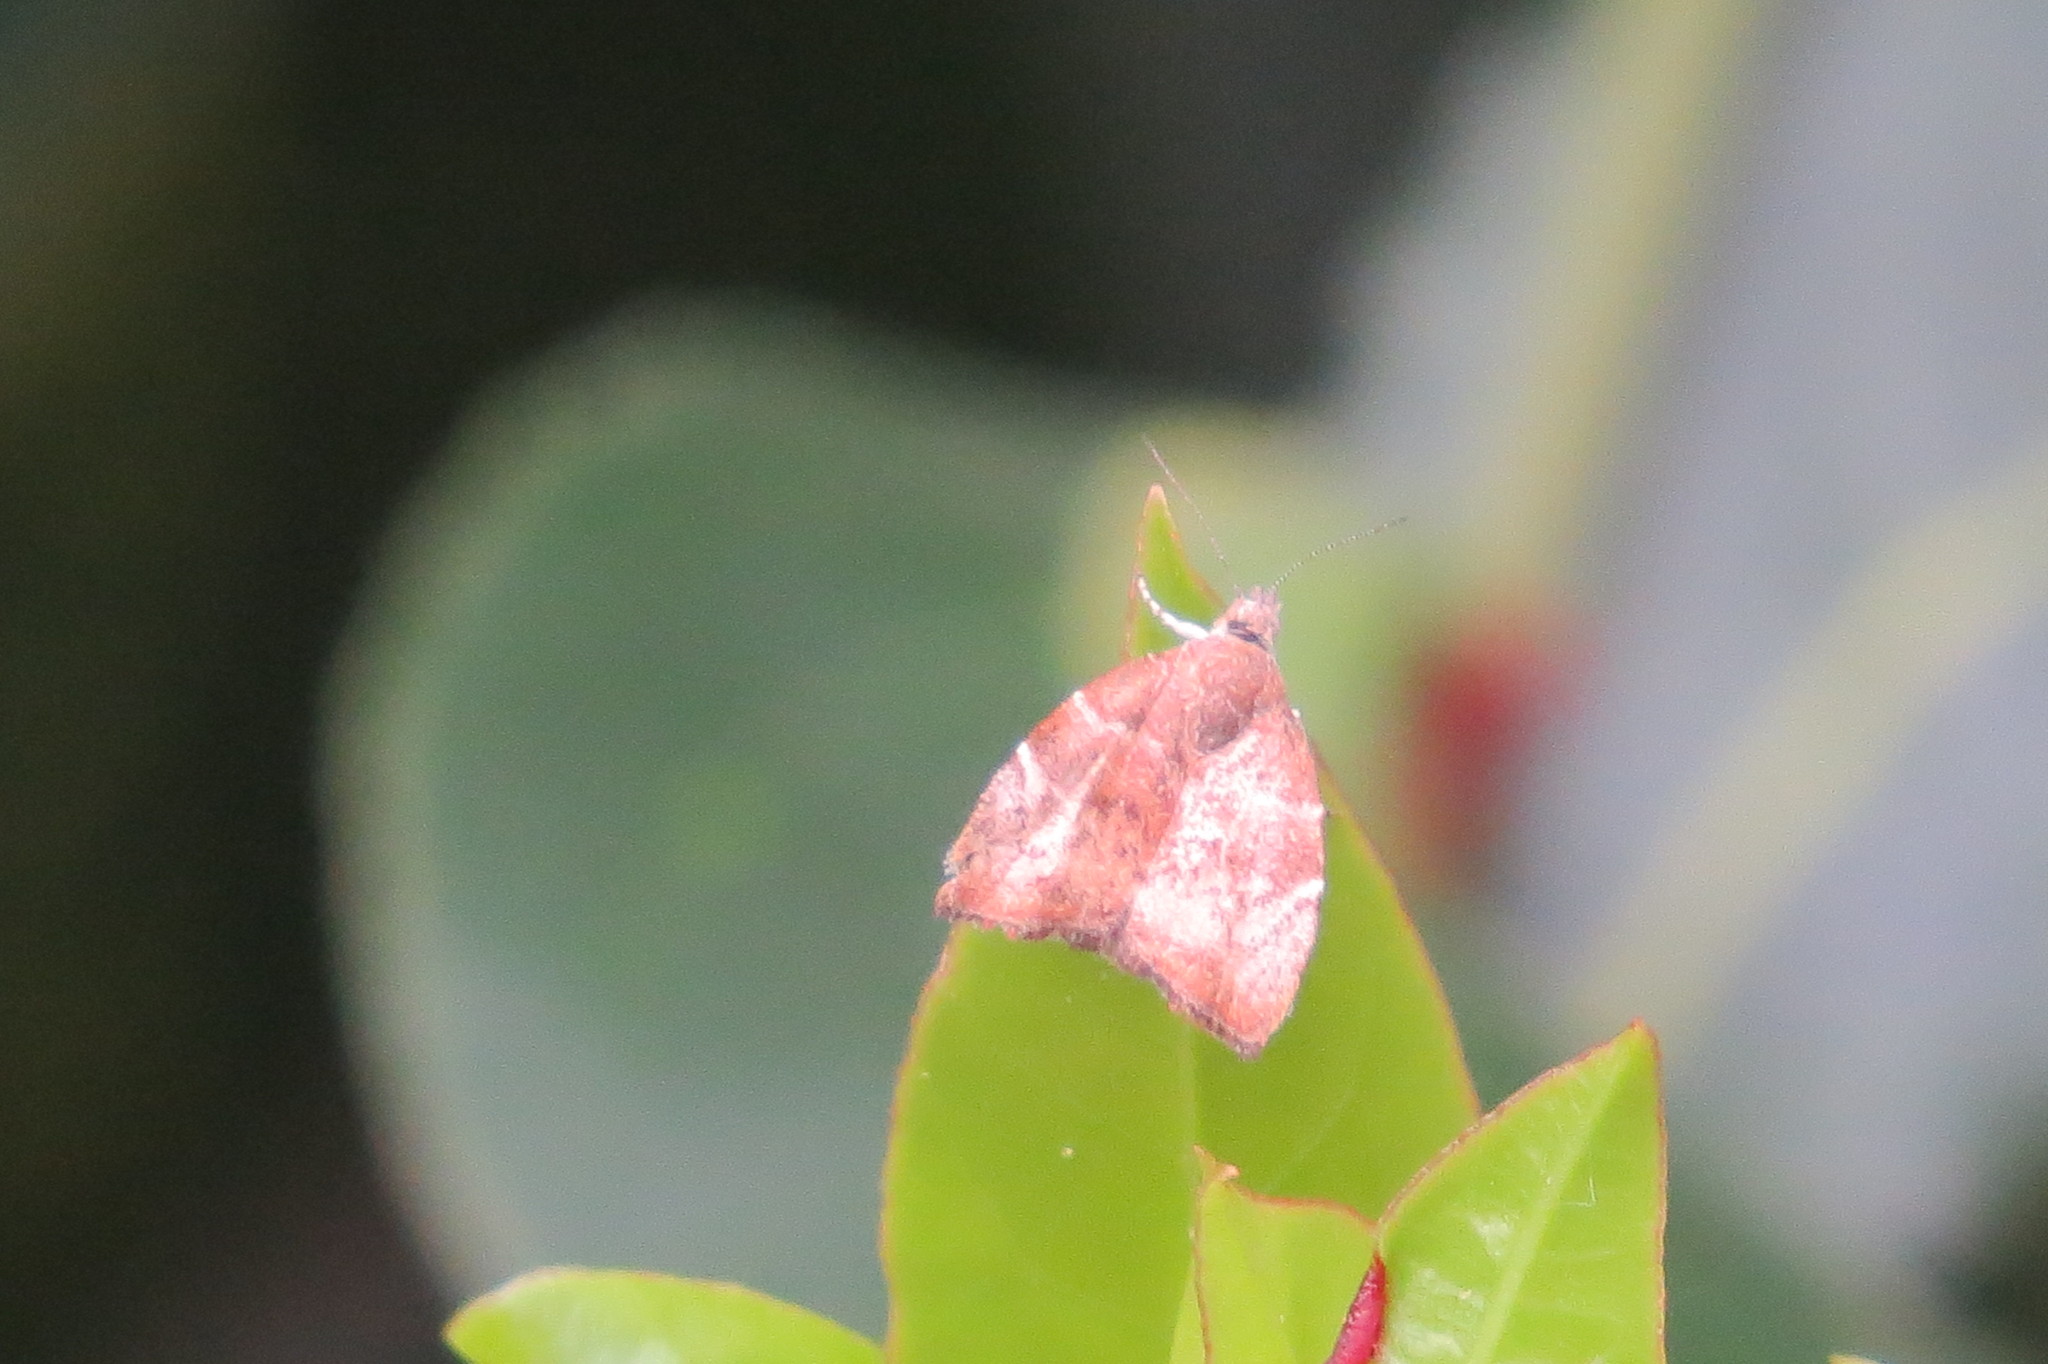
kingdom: Animalia
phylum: Arthropoda
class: Insecta
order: Lepidoptera
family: Choreutidae
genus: Anthophila
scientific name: Anthophila nemorana
